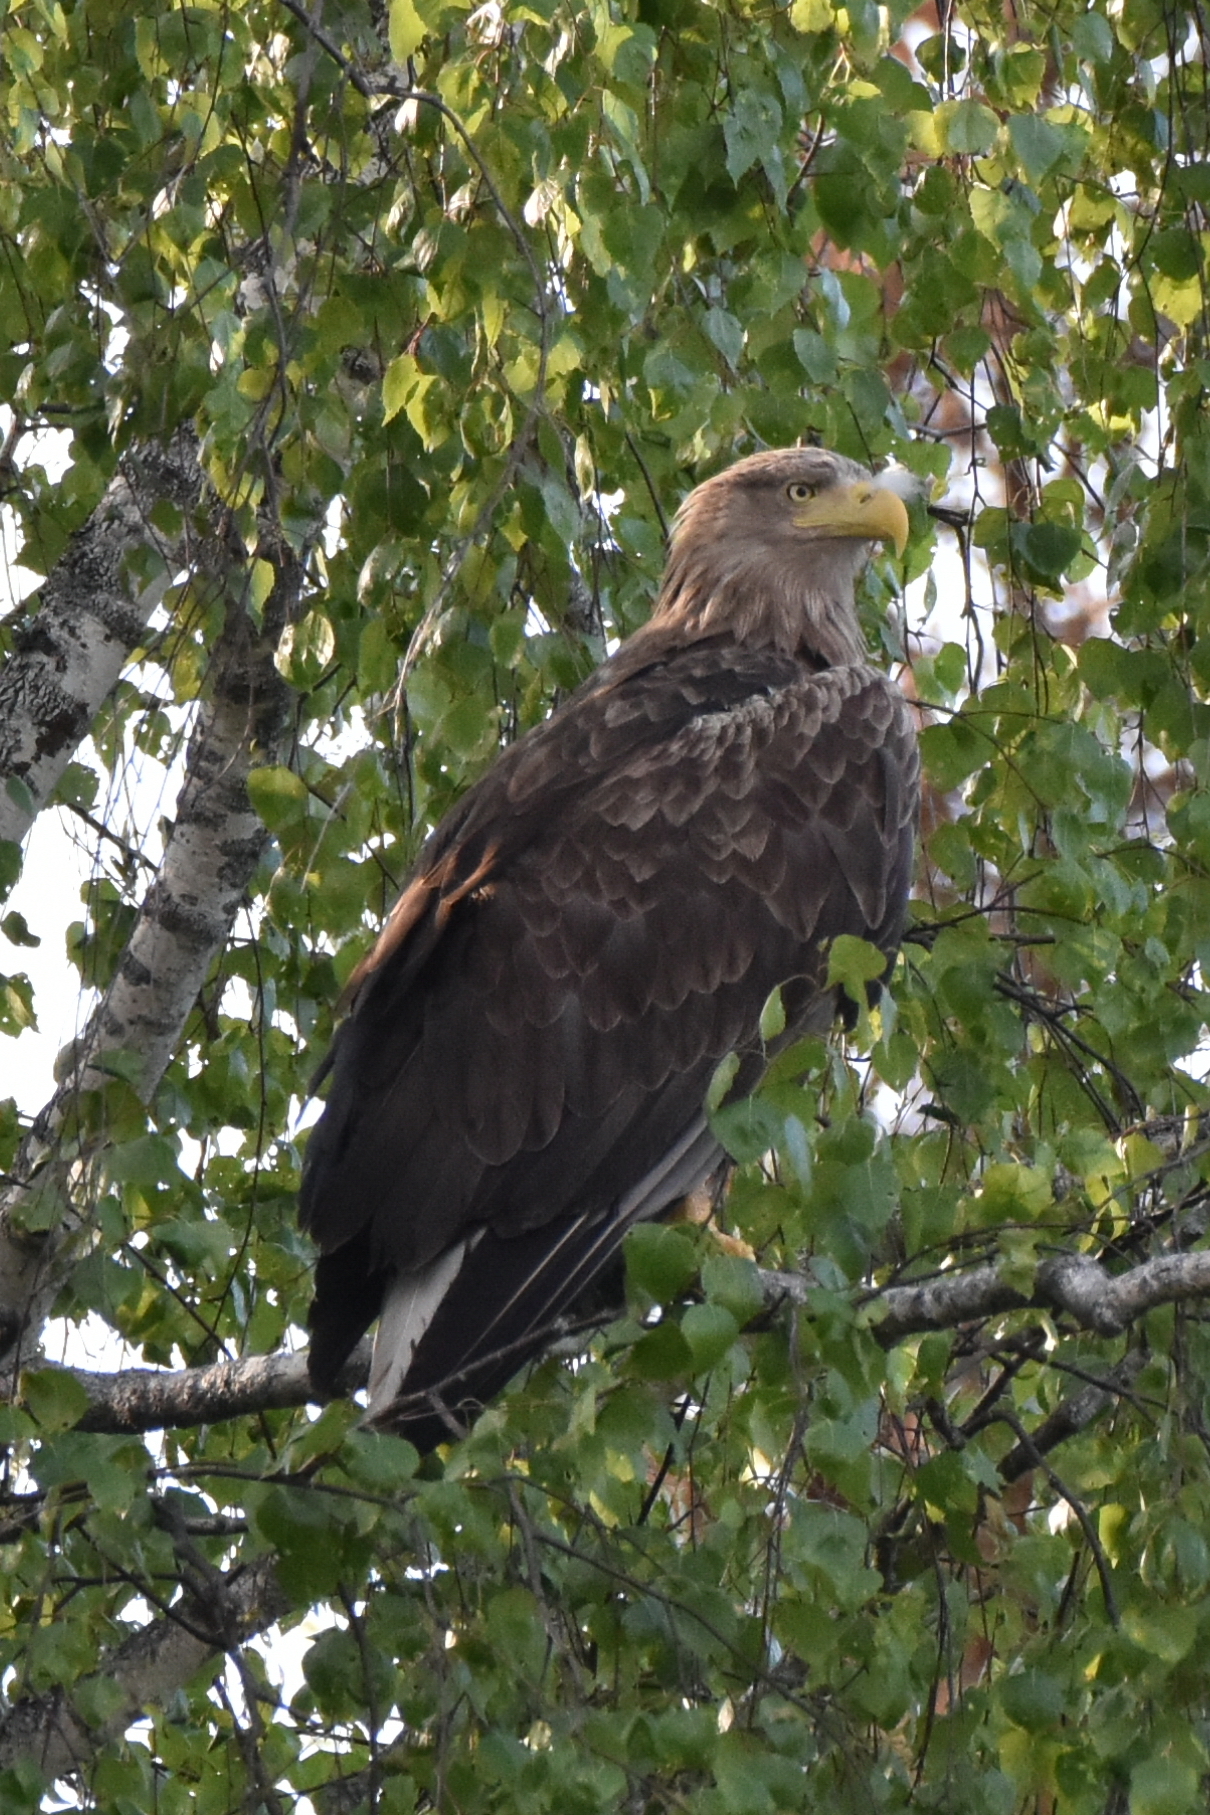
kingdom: Animalia
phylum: Chordata
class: Aves
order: Accipitriformes
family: Accipitridae
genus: Haliaeetus
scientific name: Haliaeetus albicilla
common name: White-tailed eagle
